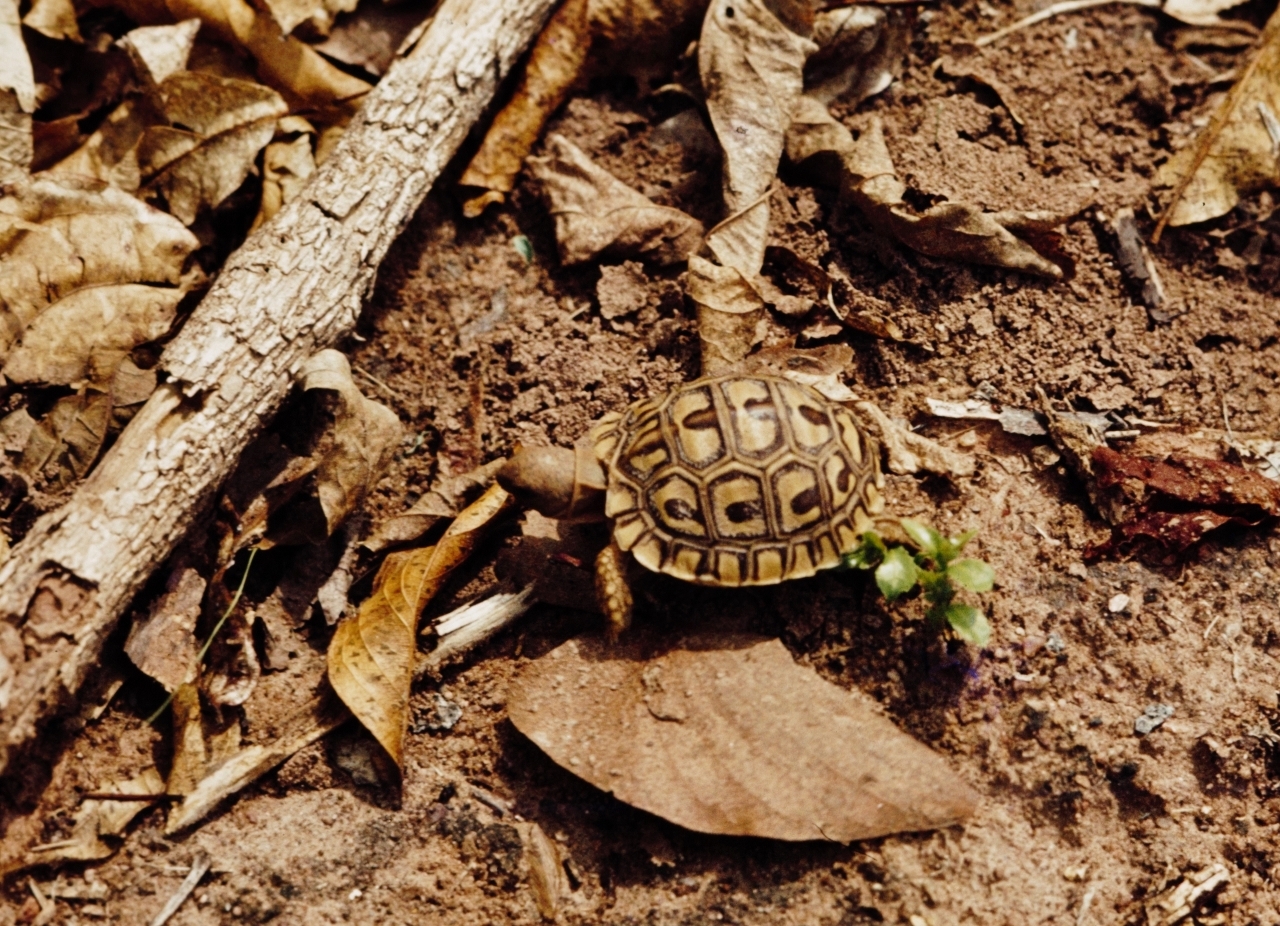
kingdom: Animalia
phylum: Chordata
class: Testudines
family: Testudinidae
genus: Stigmochelys
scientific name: Stigmochelys pardalis
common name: Leopard tortoise
